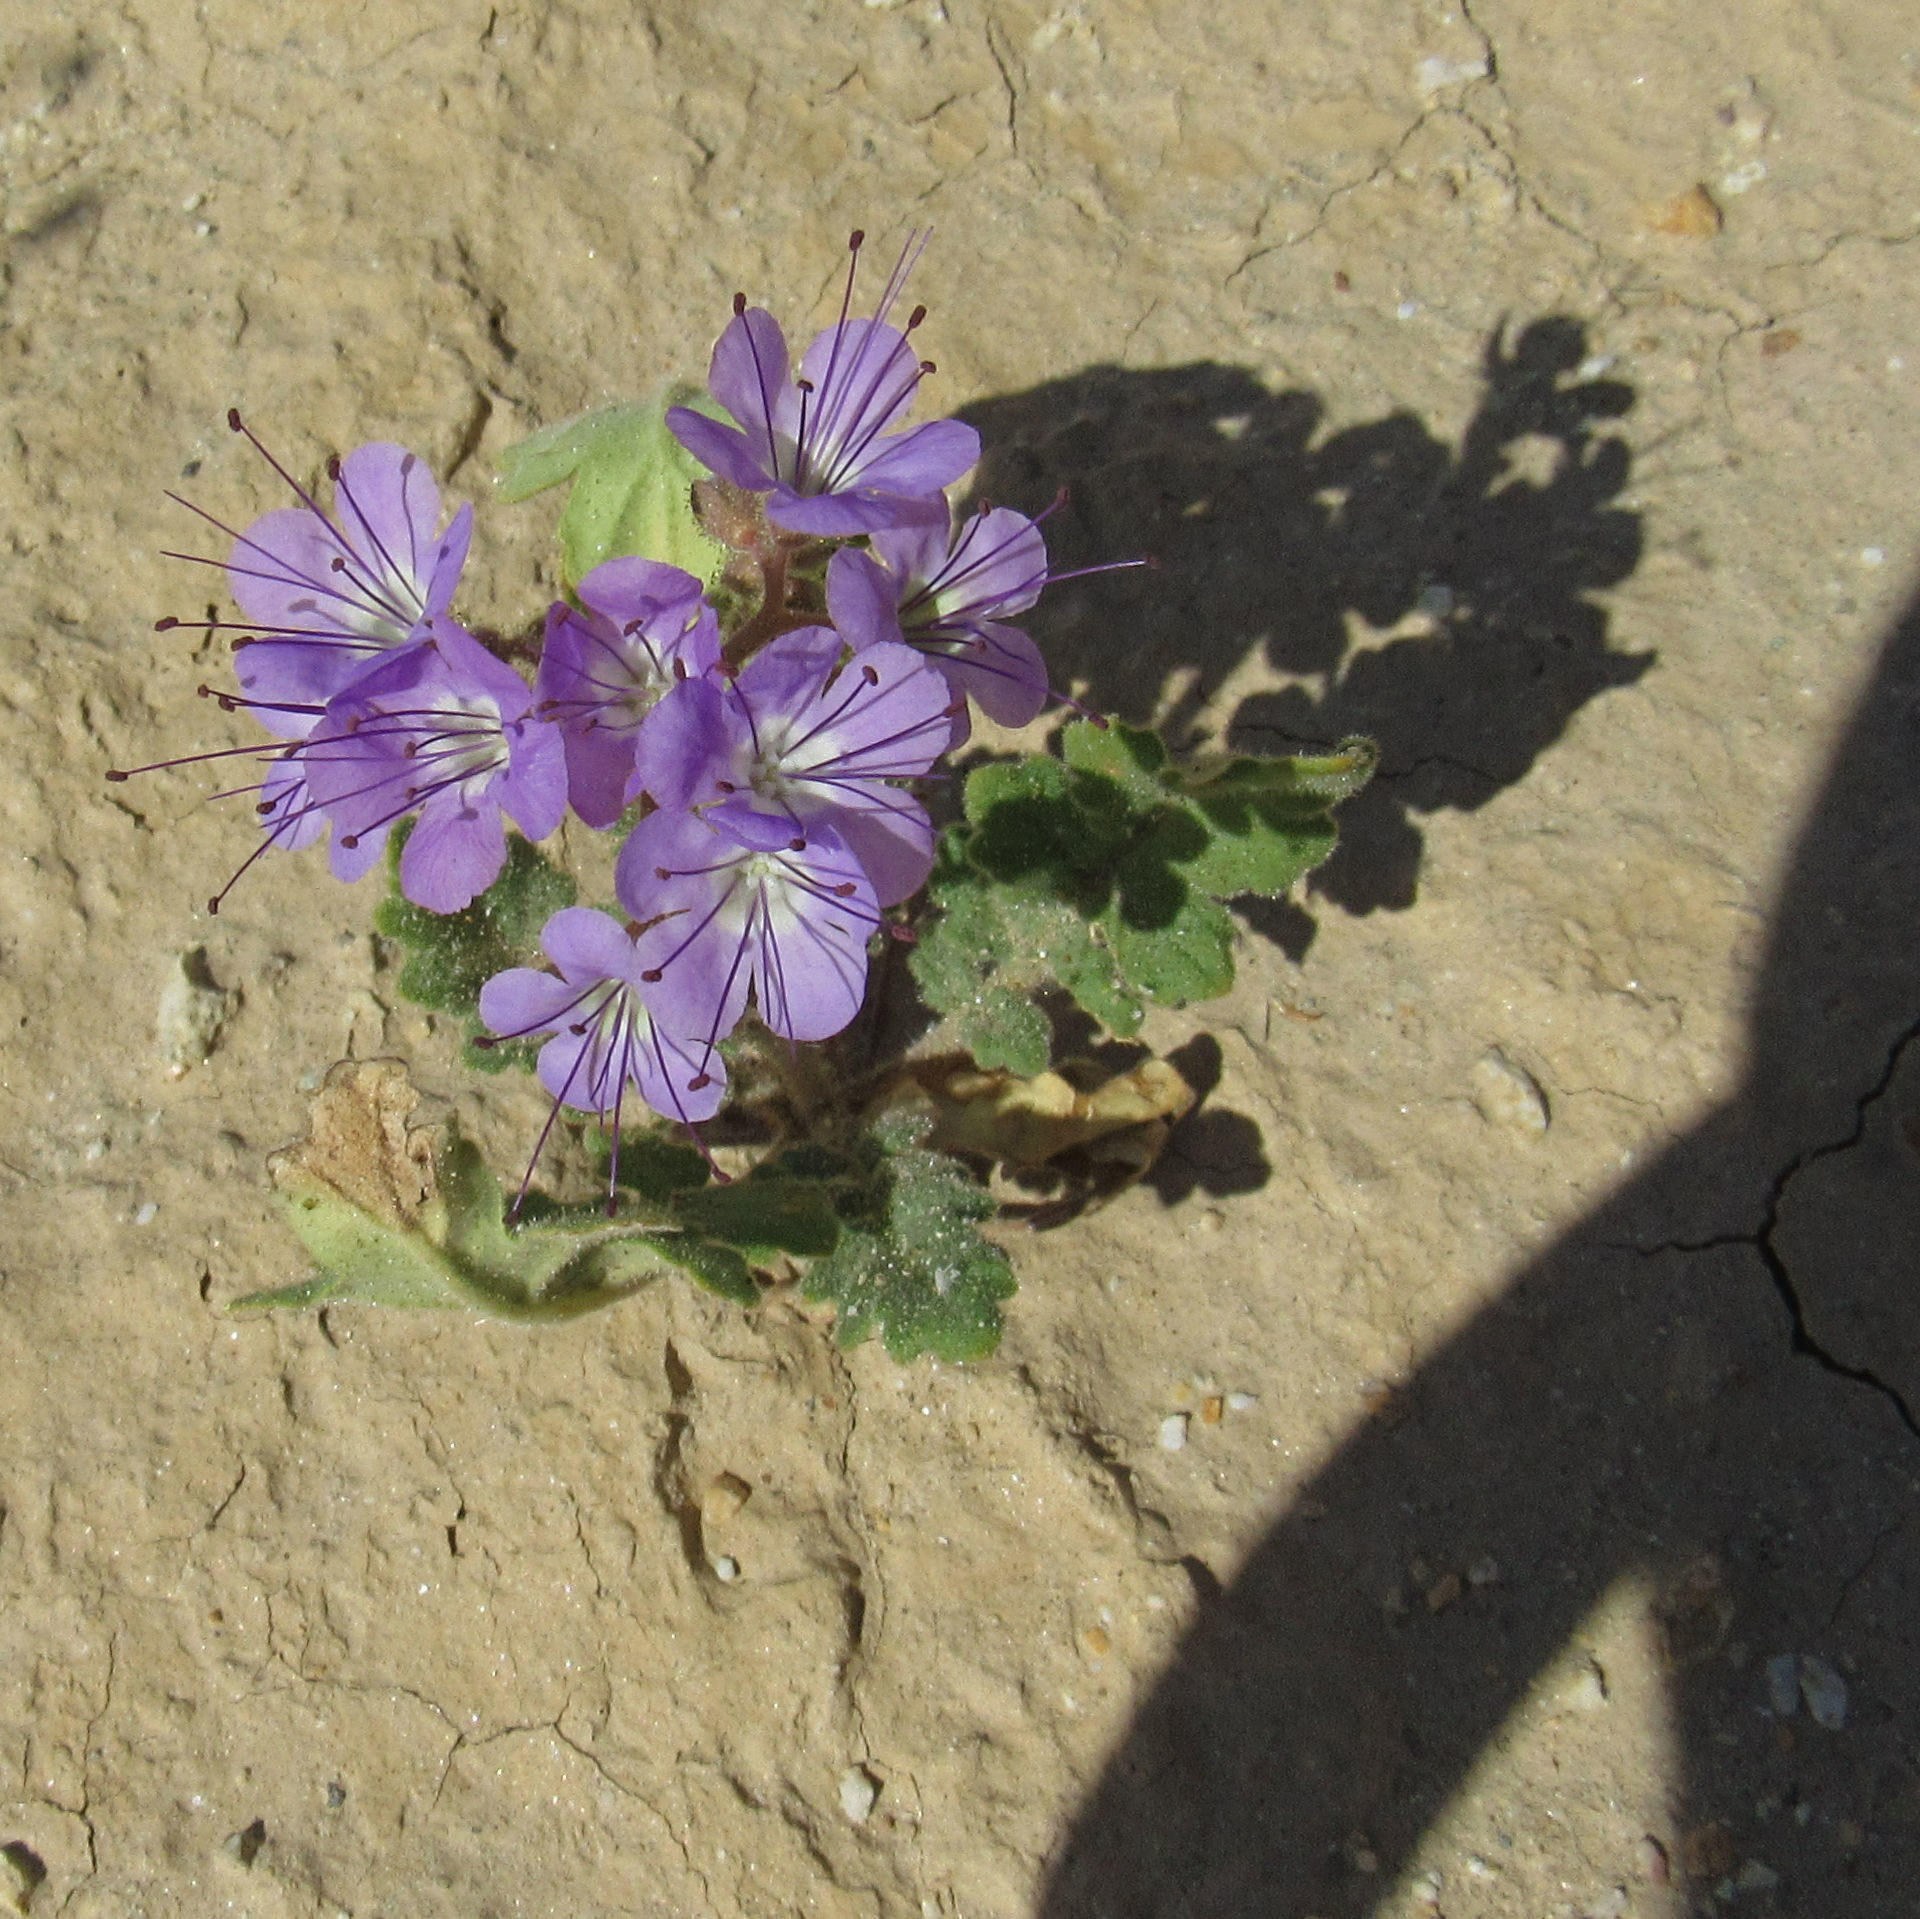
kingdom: Plantae
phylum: Tracheophyta
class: Magnoliopsida
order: Boraginales
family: Hydrophyllaceae
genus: Phacelia
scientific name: Phacelia crenulata
